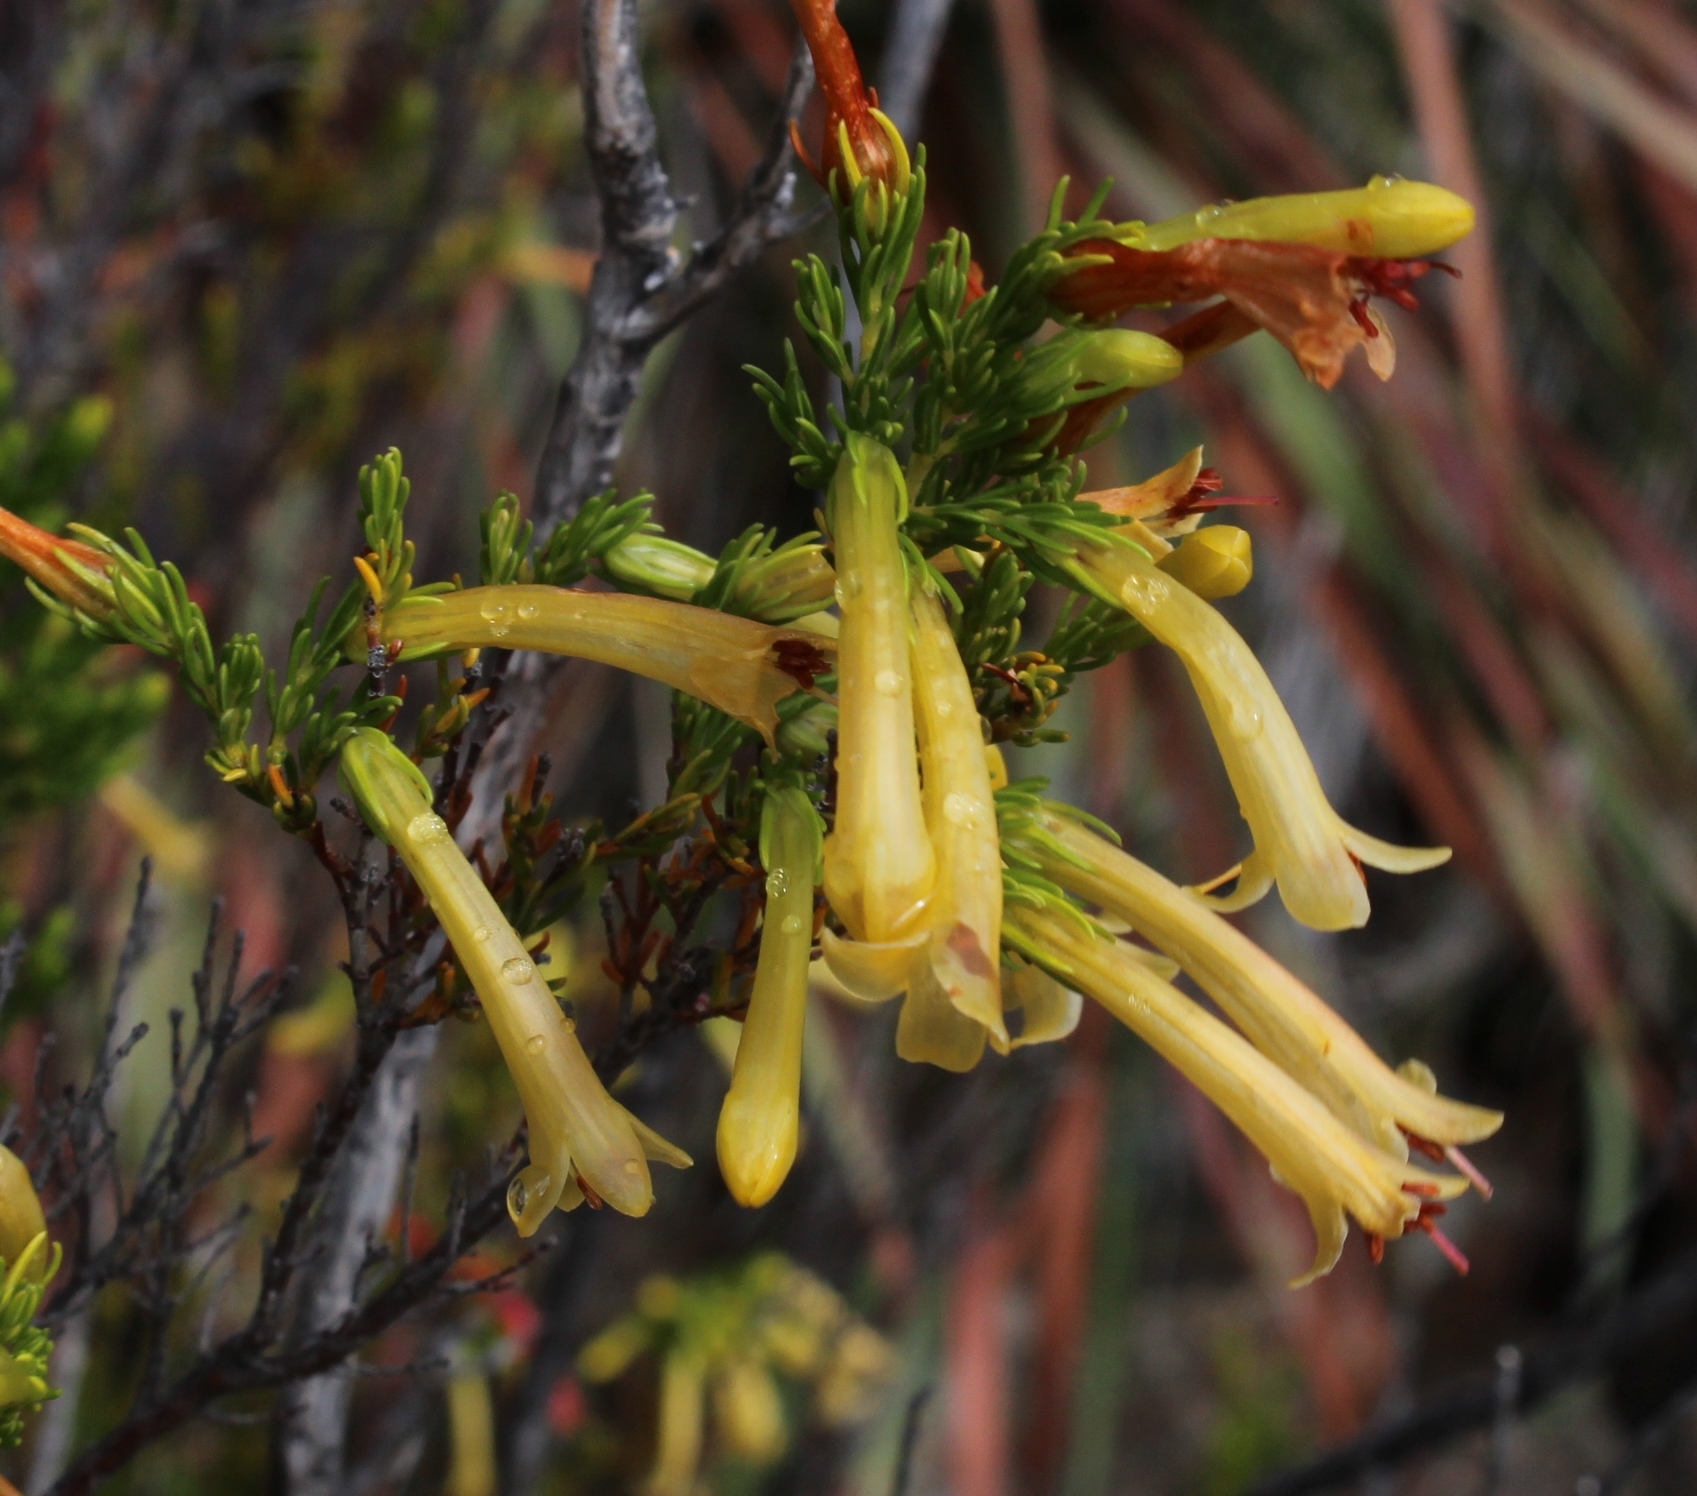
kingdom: Plantae
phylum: Tracheophyta
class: Magnoliopsida
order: Ericales
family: Ericaceae
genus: Erica
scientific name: Erica curviflora
